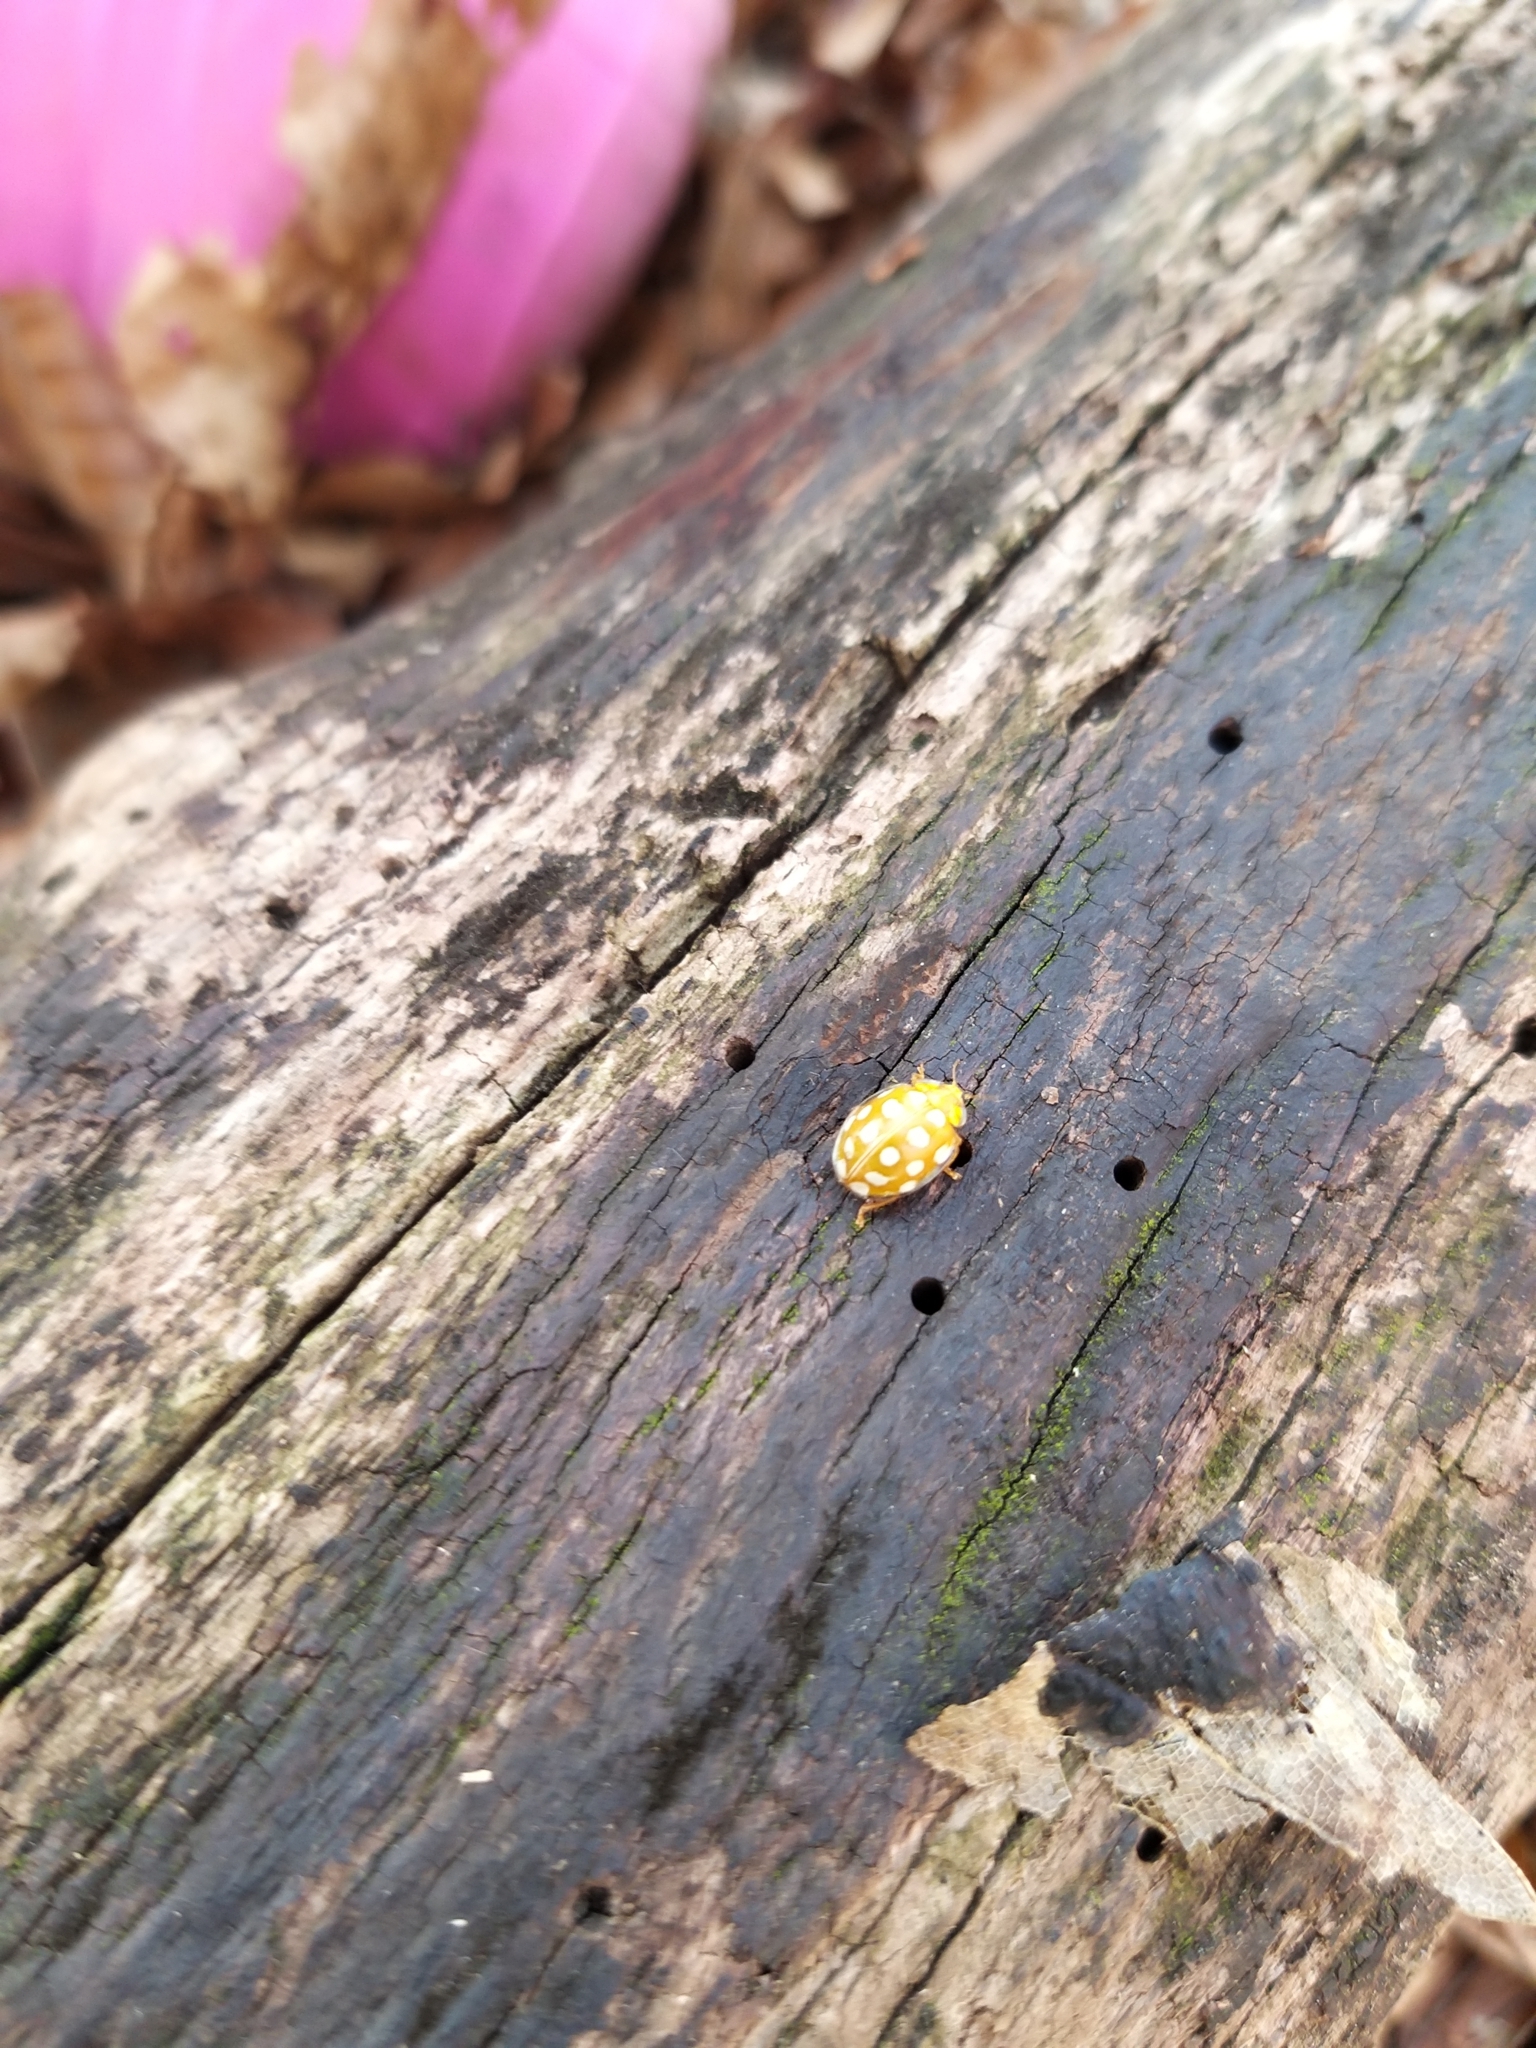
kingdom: Animalia
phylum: Arthropoda
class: Insecta
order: Coleoptera
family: Coccinellidae
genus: Halyzia
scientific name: Halyzia sedecimguttata
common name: Orange ladybird
